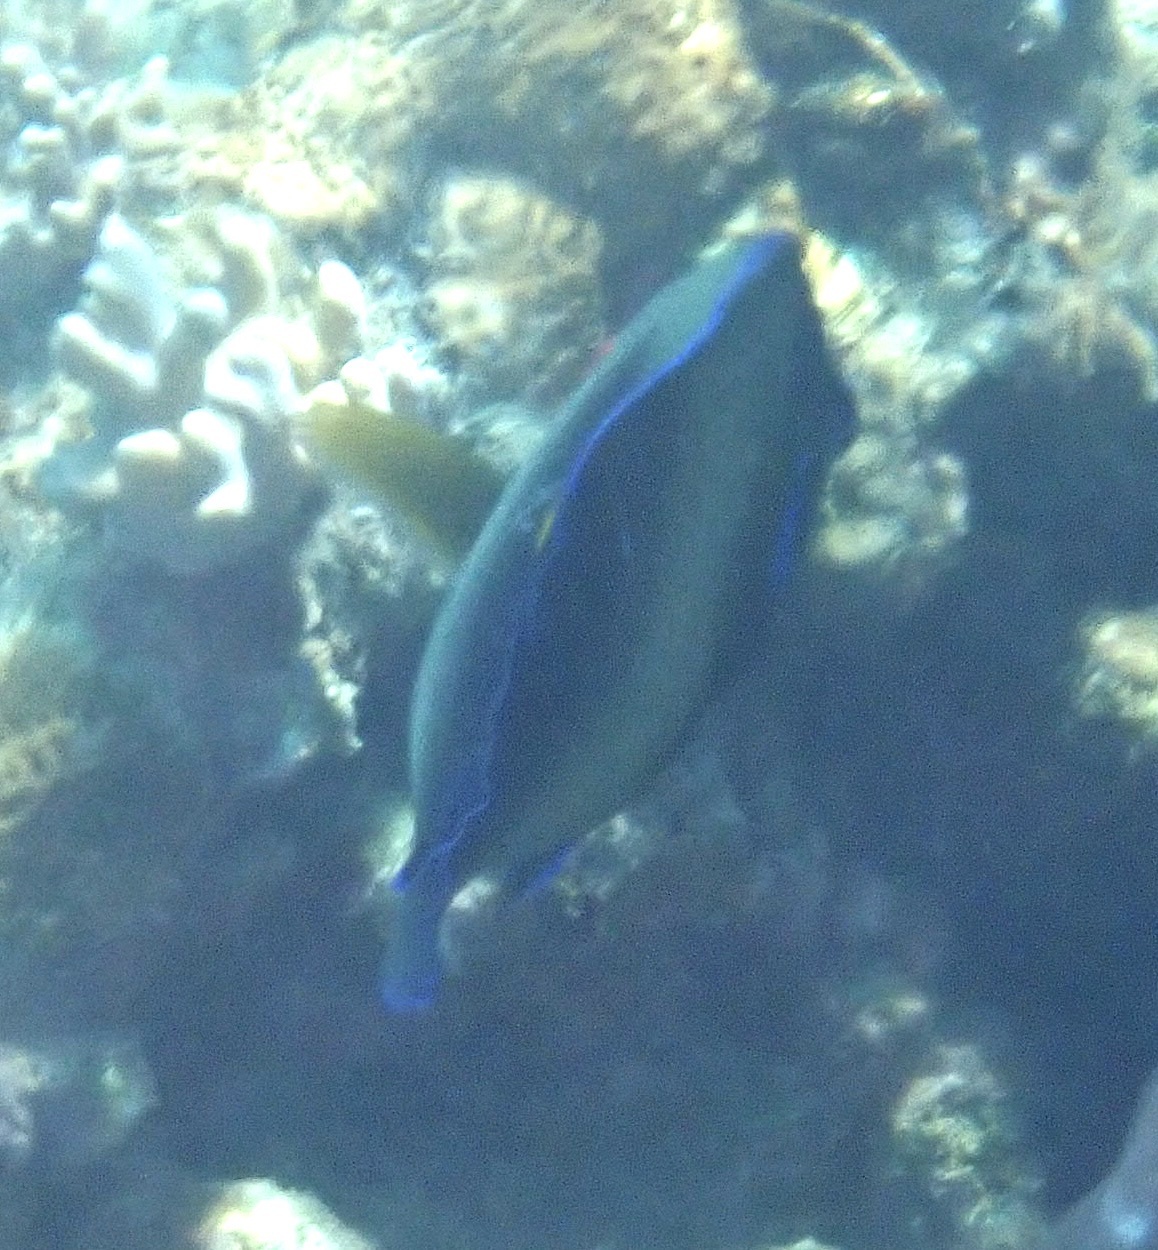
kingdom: Animalia
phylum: Chordata
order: Perciformes
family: Pomacanthidae
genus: Pomacanthus
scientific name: Pomacanthus semicirculatus
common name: Semicircle angelfish
